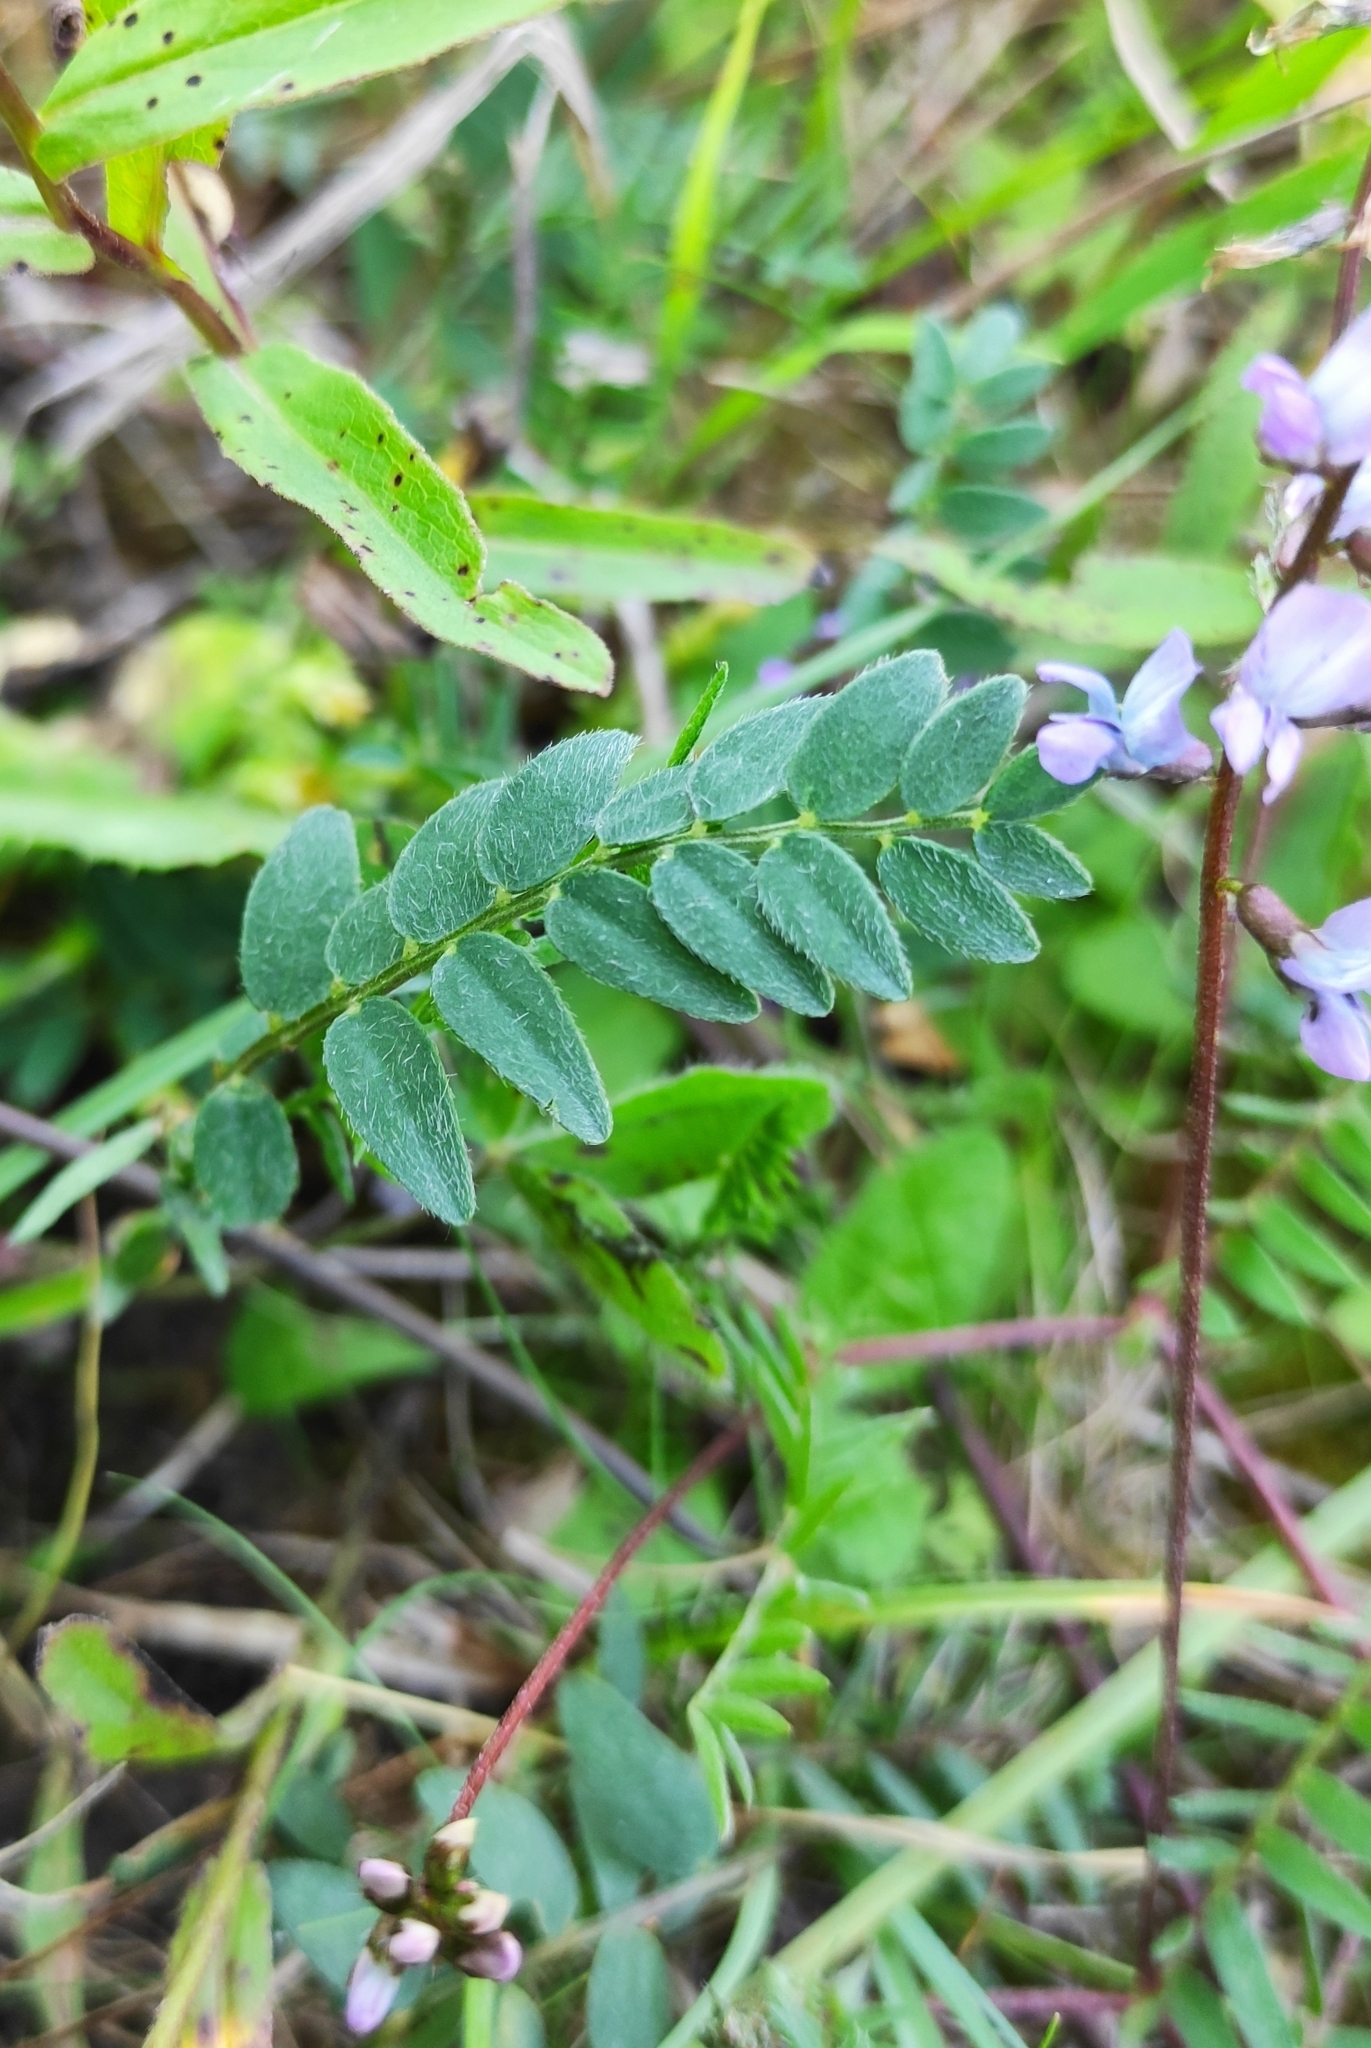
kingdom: Plantae
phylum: Tracheophyta
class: Magnoliopsida
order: Fabales
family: Fabaceae
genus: Oxytropis
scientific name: Oxytropis glabra
